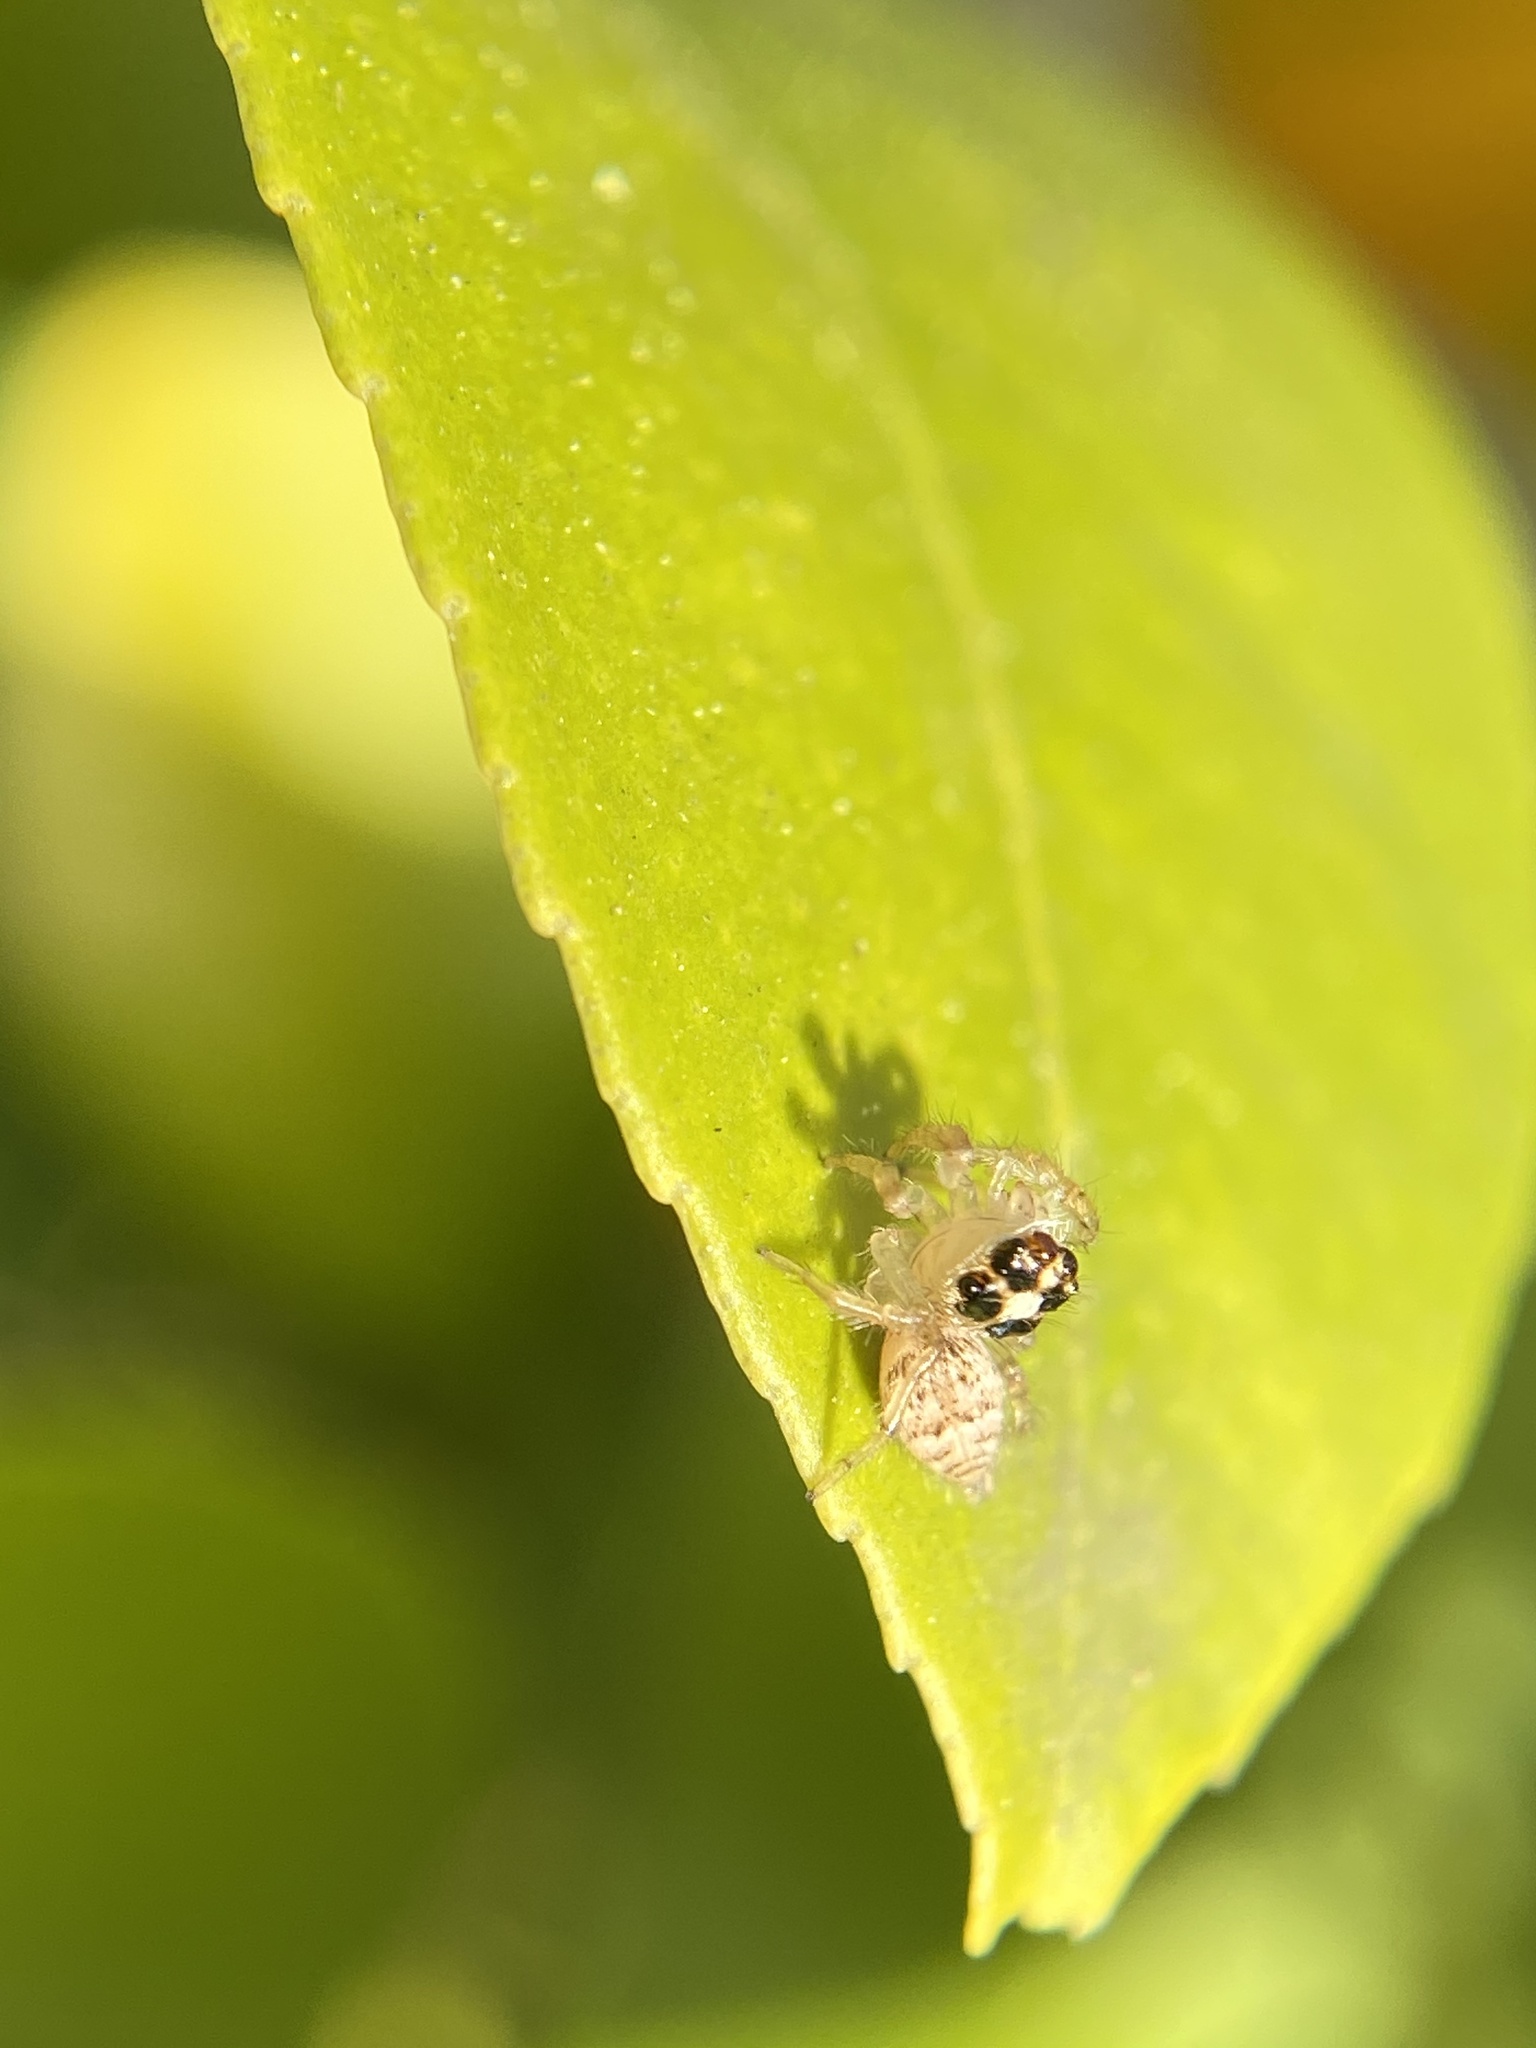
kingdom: Animalia
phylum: Arthropoda
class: Arachnida
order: Araneae
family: Salticidae
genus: Colonus
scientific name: Colonus hesperus
